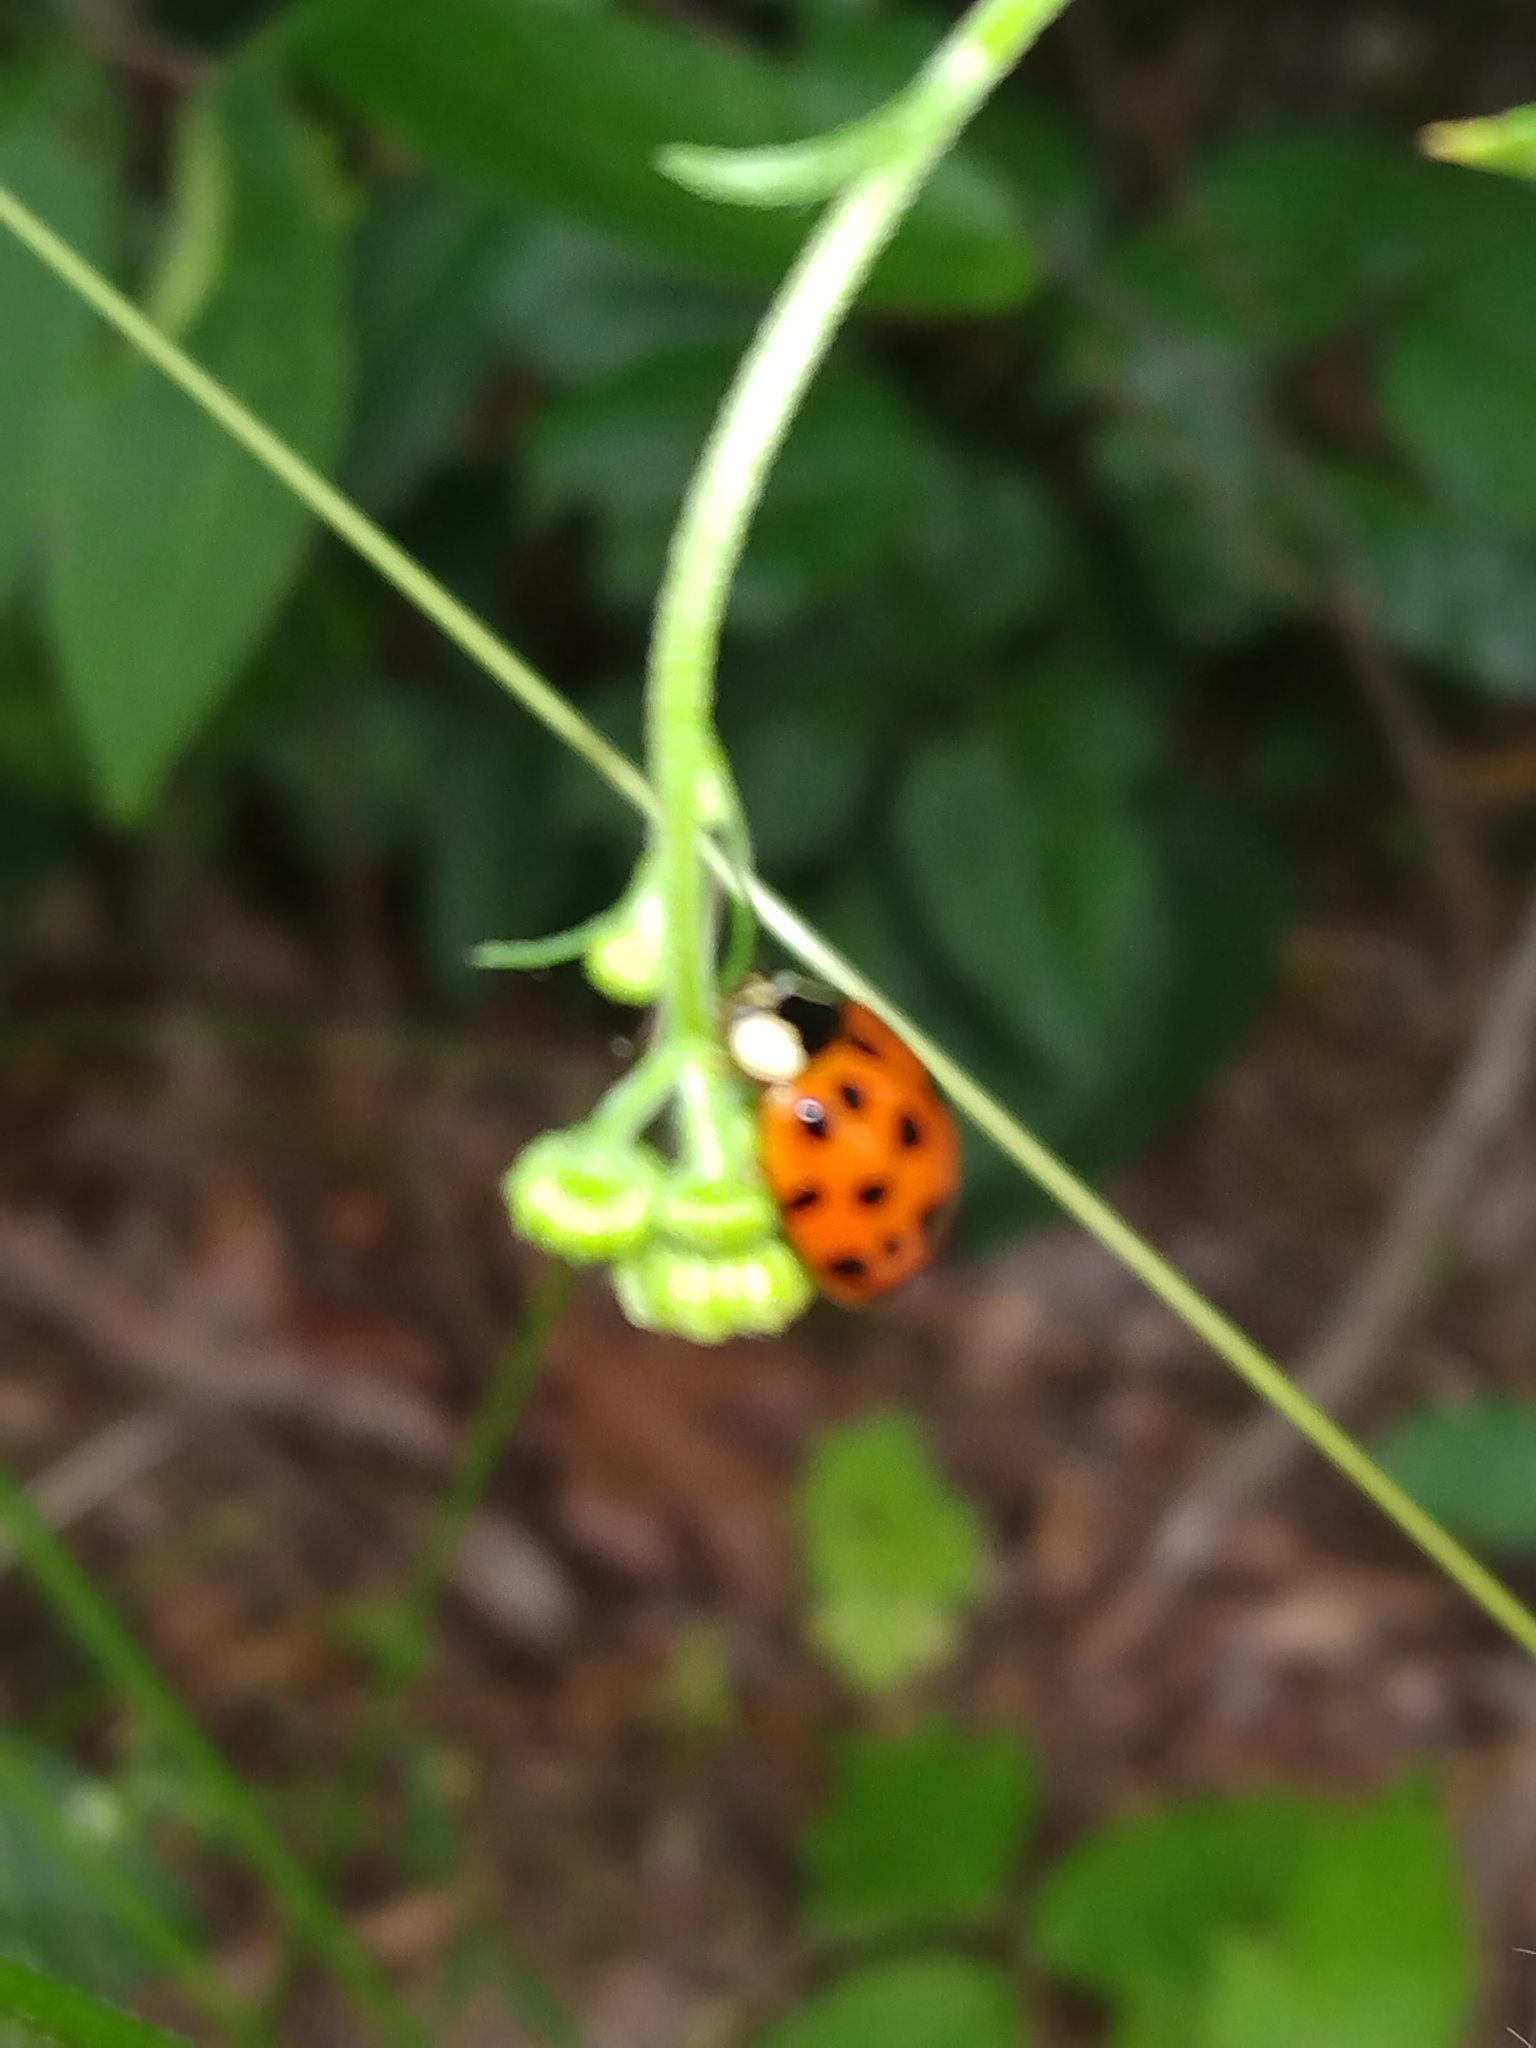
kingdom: Animalia
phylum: Arthropoda
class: Insecta
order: Coleoptera
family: Coccinellidae
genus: Harmonia
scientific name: Harmonia axyridis
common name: Harlequin ladybird
